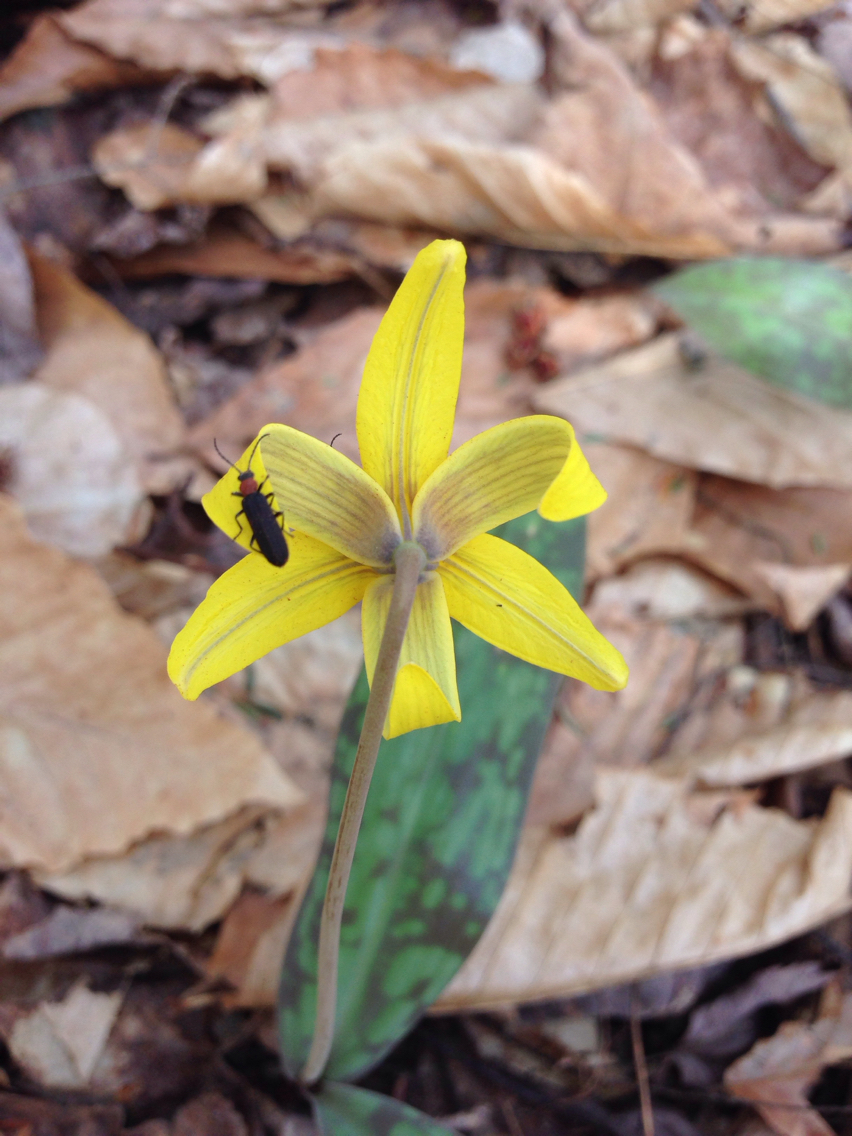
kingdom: Animalia
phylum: Arthropoda
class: Insecta
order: Coleoptera
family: Oedemeridae
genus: Ischnomera
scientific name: Ischnomera
